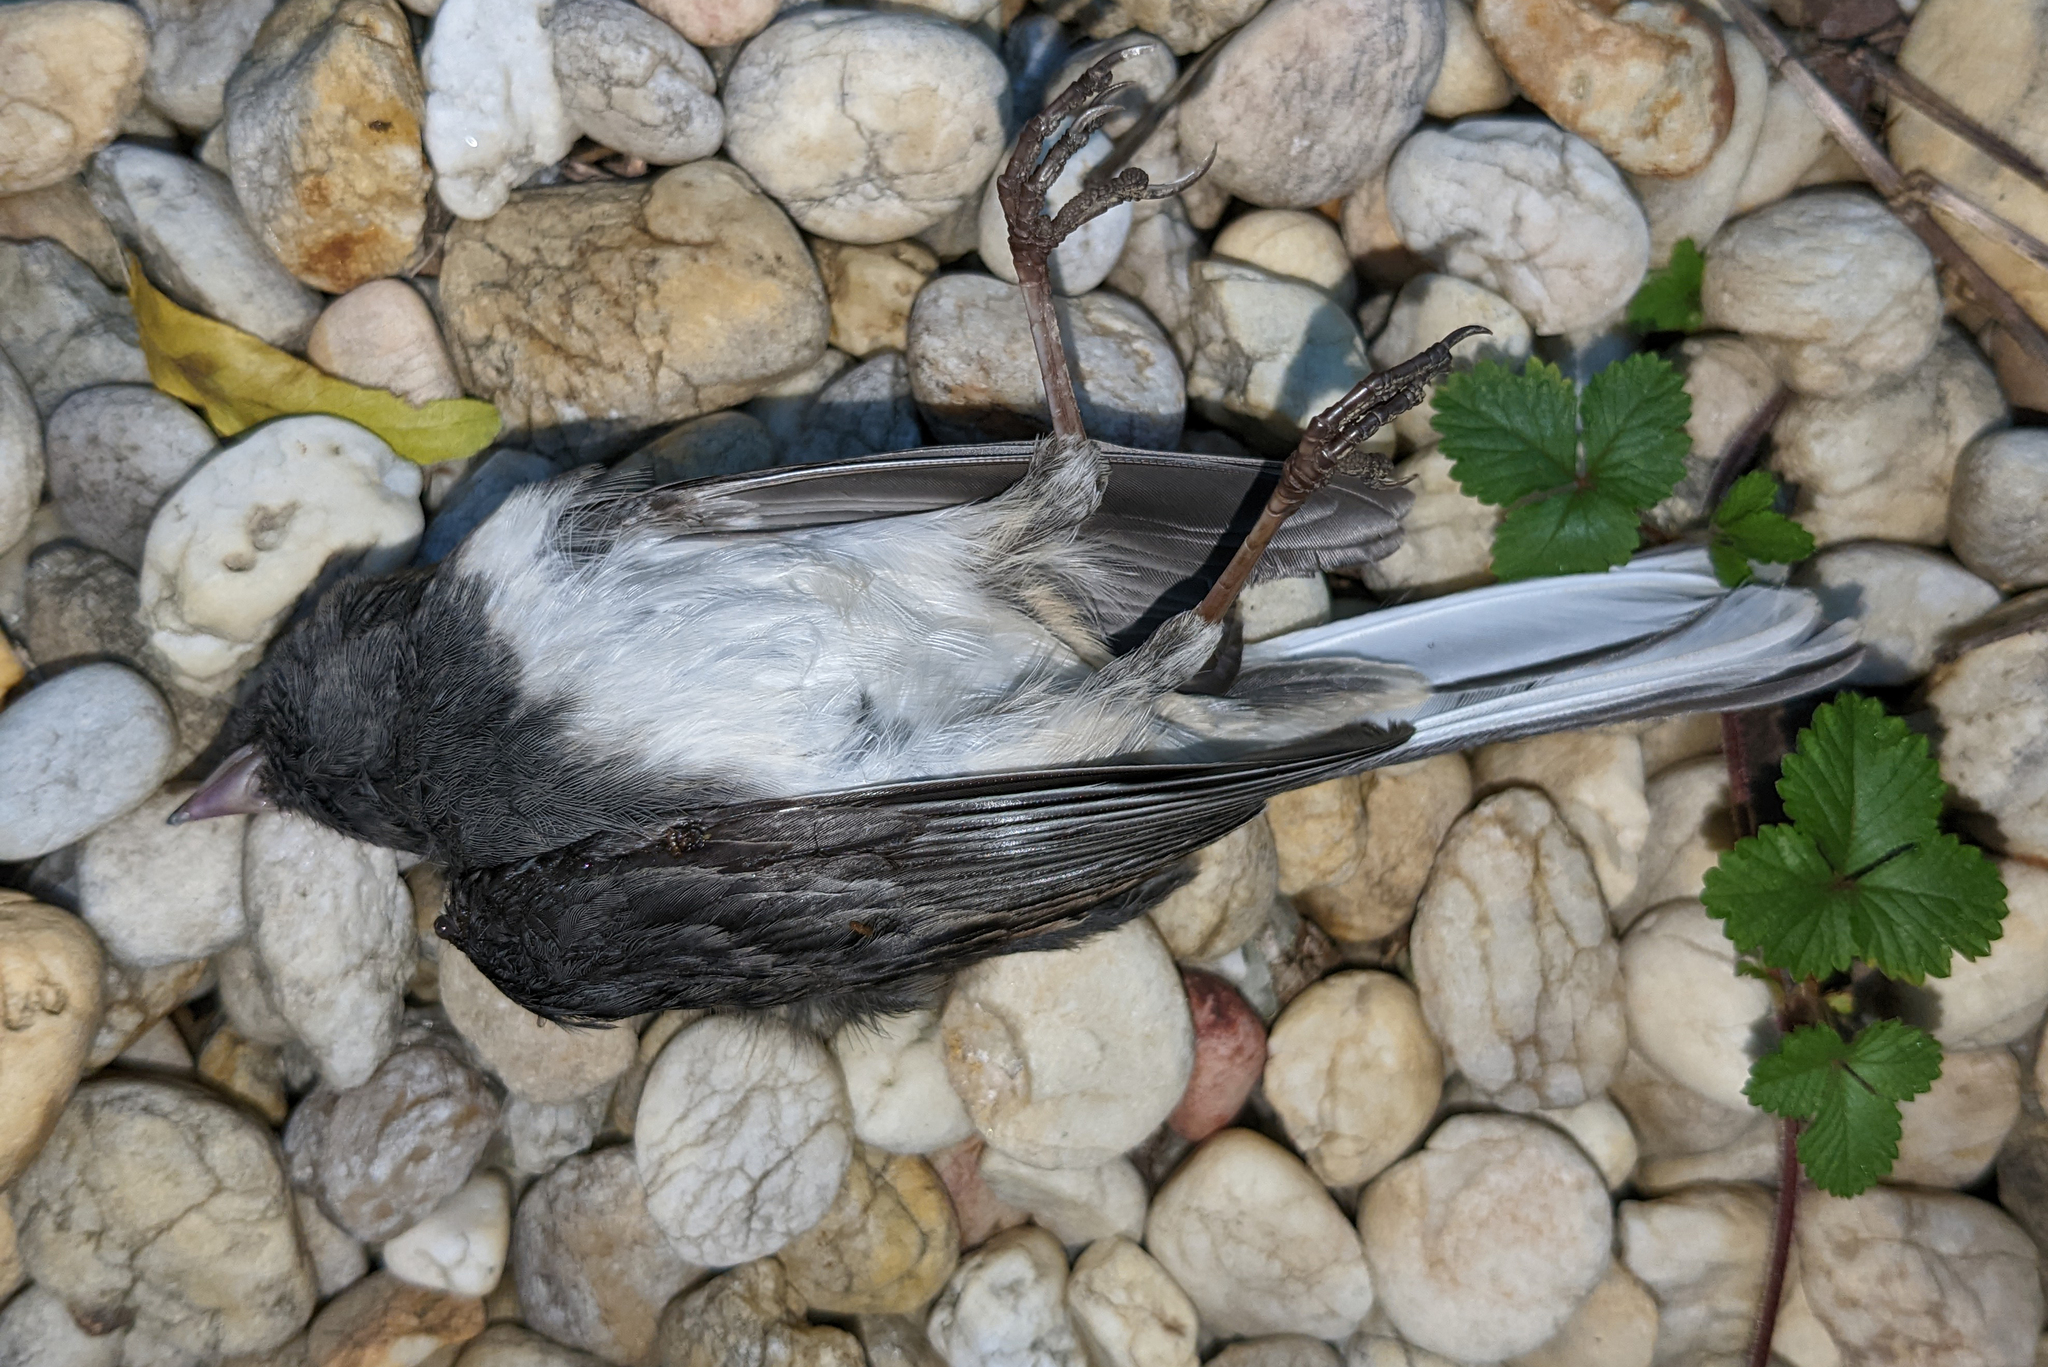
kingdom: Animalia
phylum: Chordata
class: Aves
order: Passeriformes
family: Passerellidae
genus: Junco
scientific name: Junco hyemalis
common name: Dark-eyed junco
